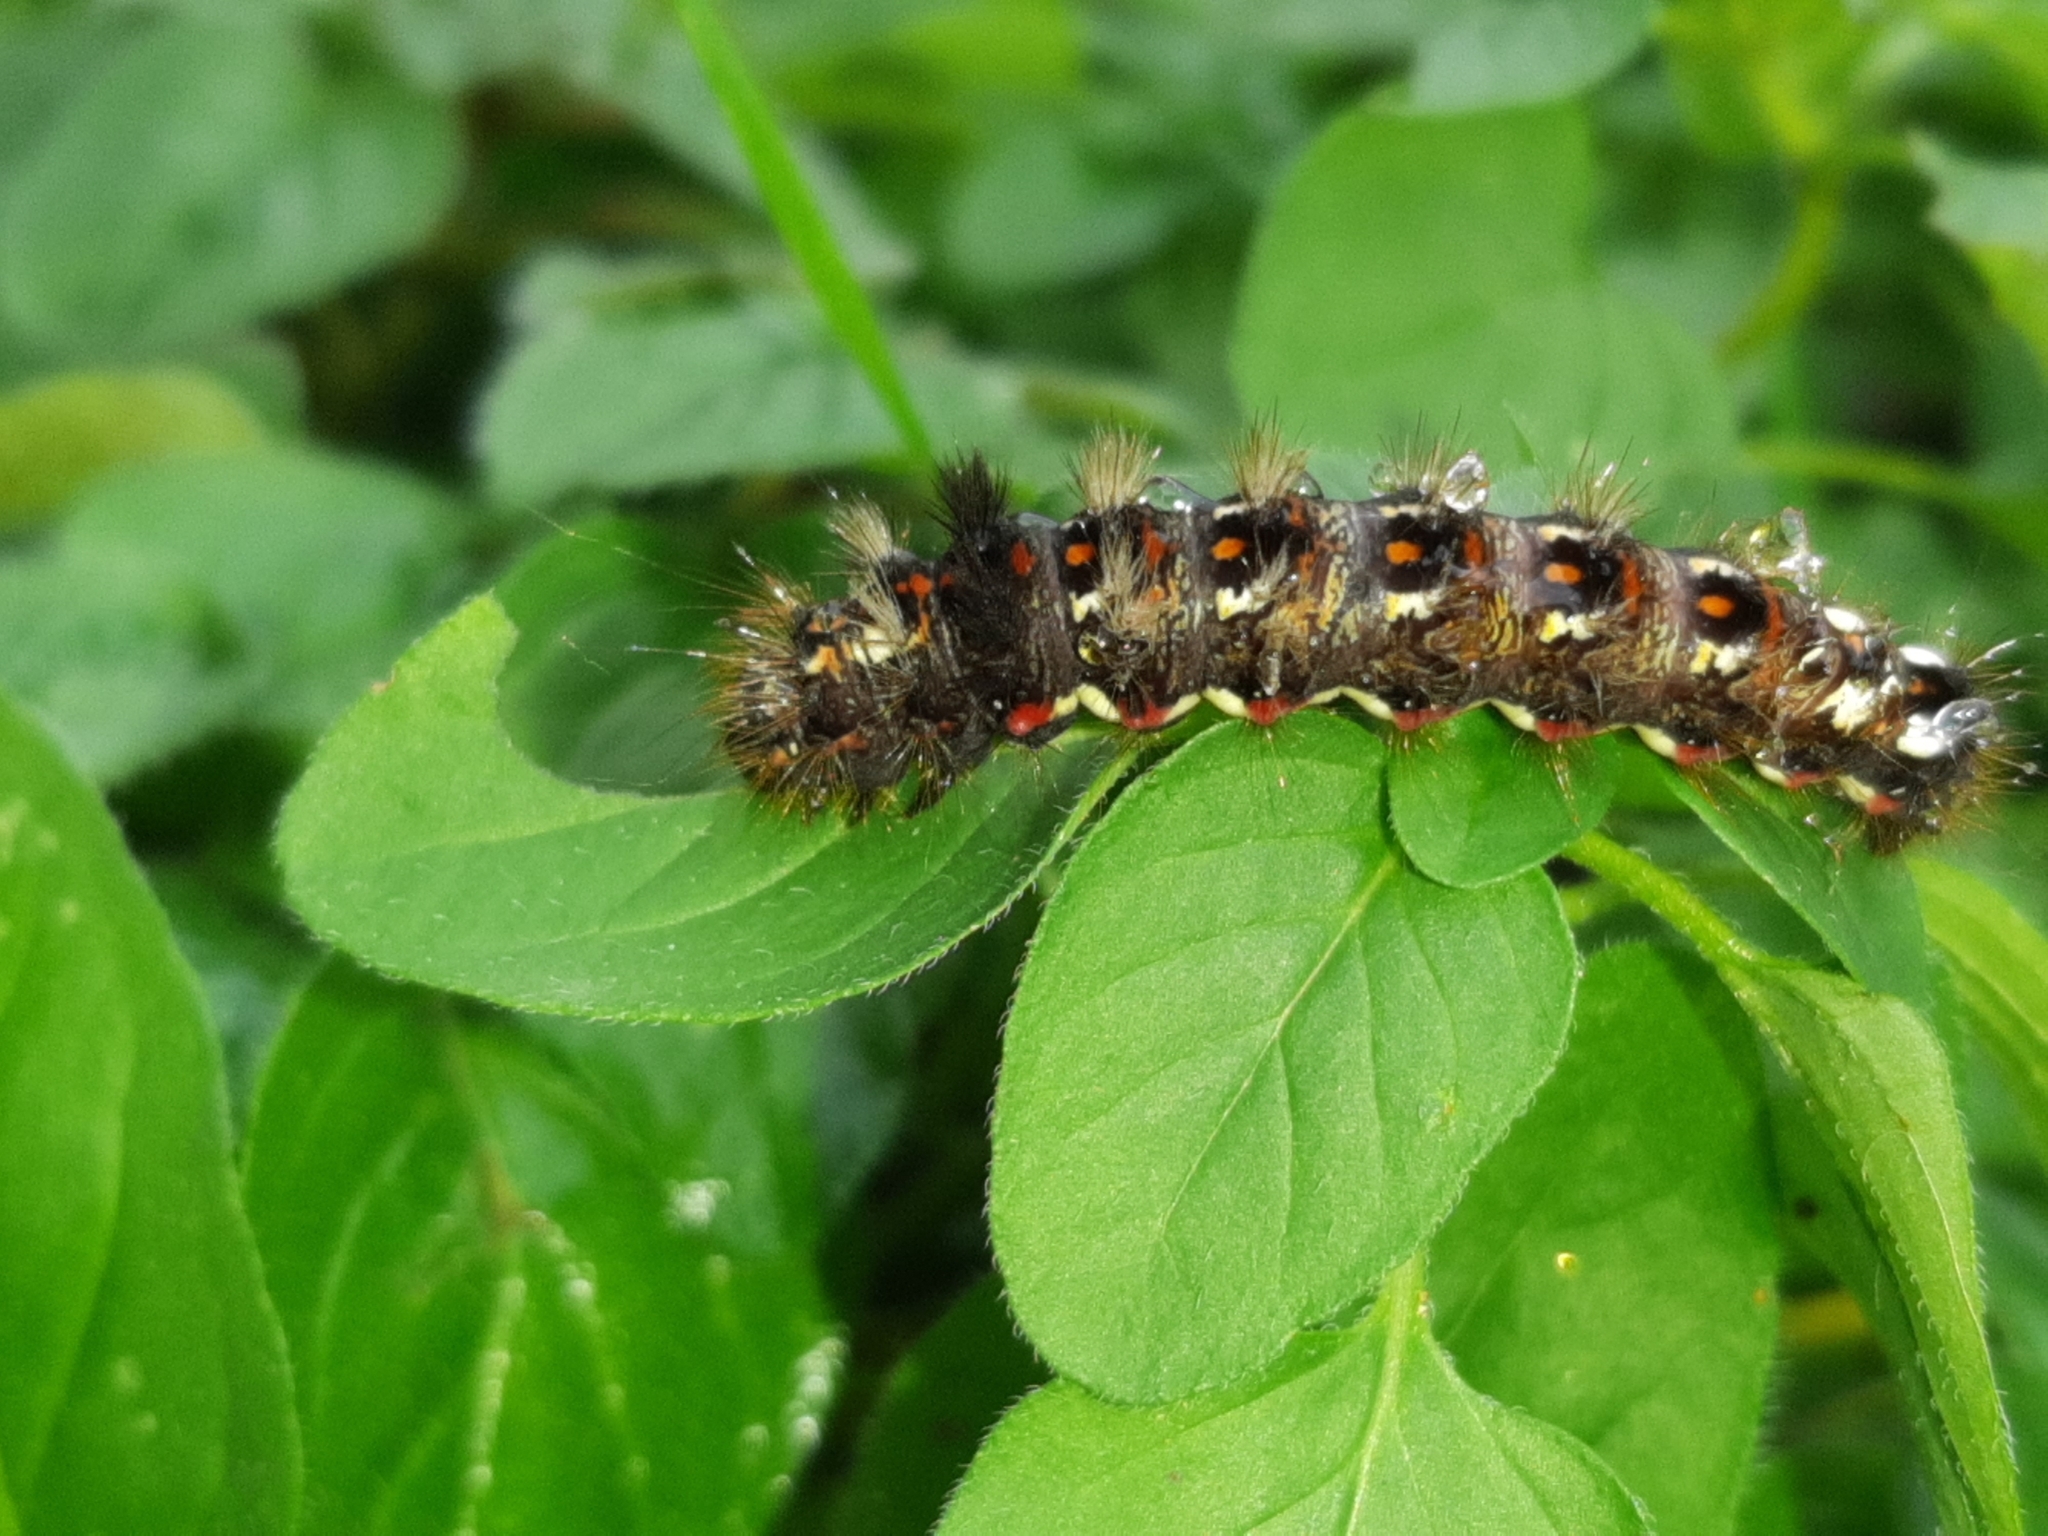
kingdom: Animalia
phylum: Arthropoda
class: Insecta
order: Lepidoptera
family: Noctuidae
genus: Acronicta
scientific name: Acronicta rumicis
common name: Knot grass
